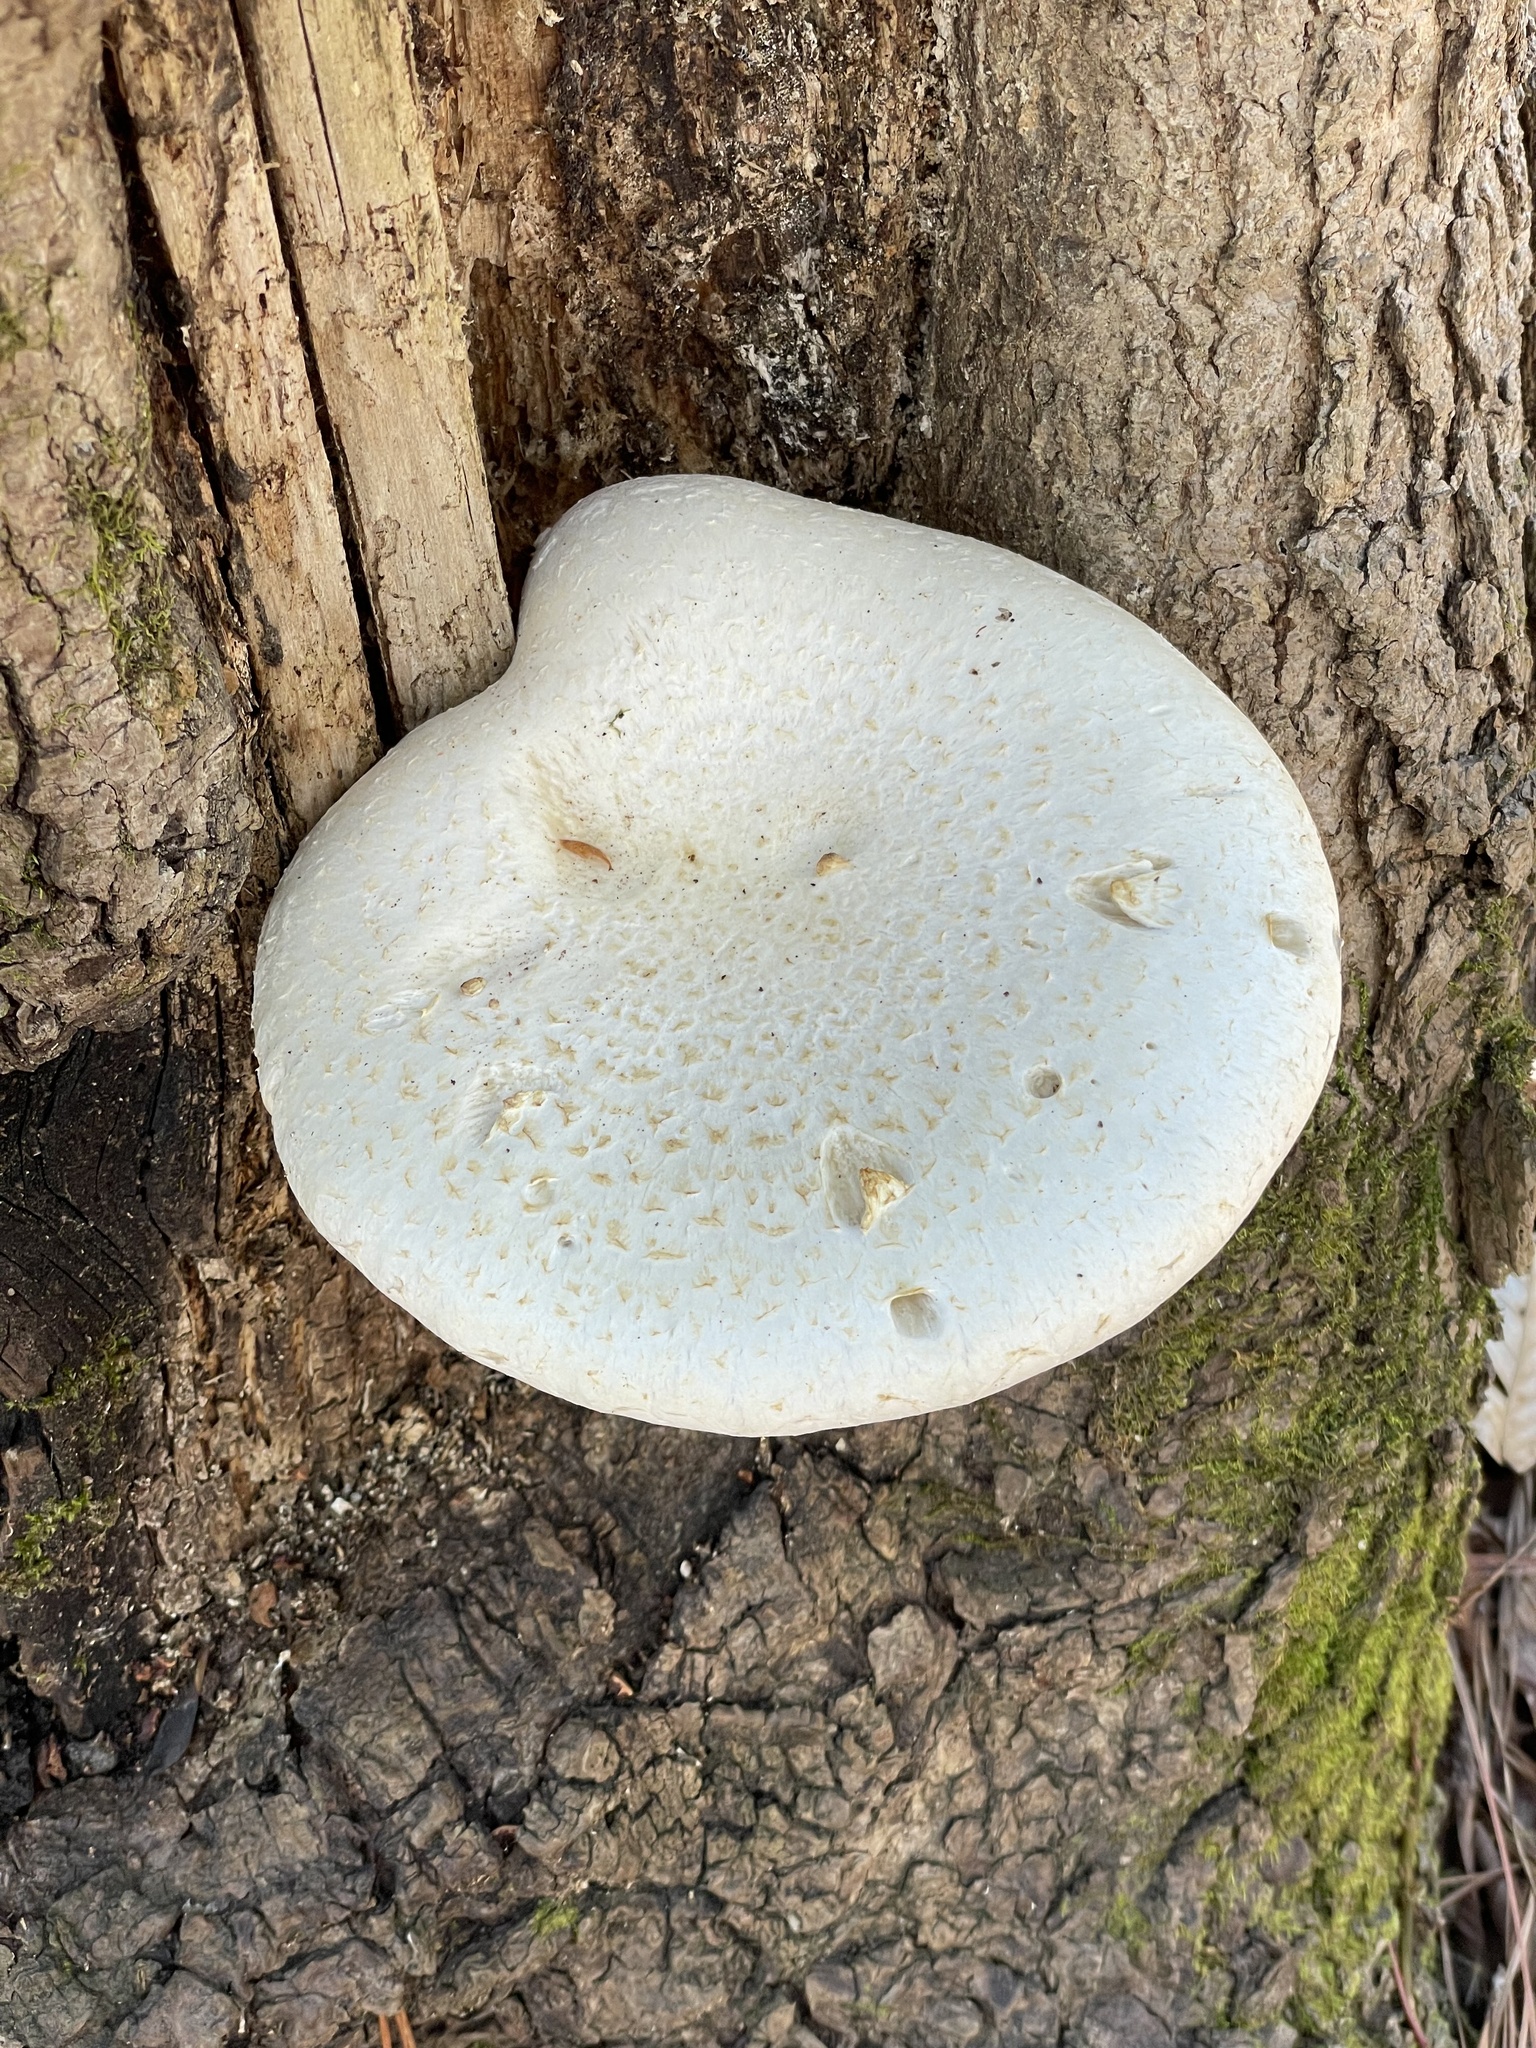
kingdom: Fungi
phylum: Basidiomycota
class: Agaricomycetes
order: Polyporales
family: Polyporaceae
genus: Lentinus
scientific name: Lentinus levis
